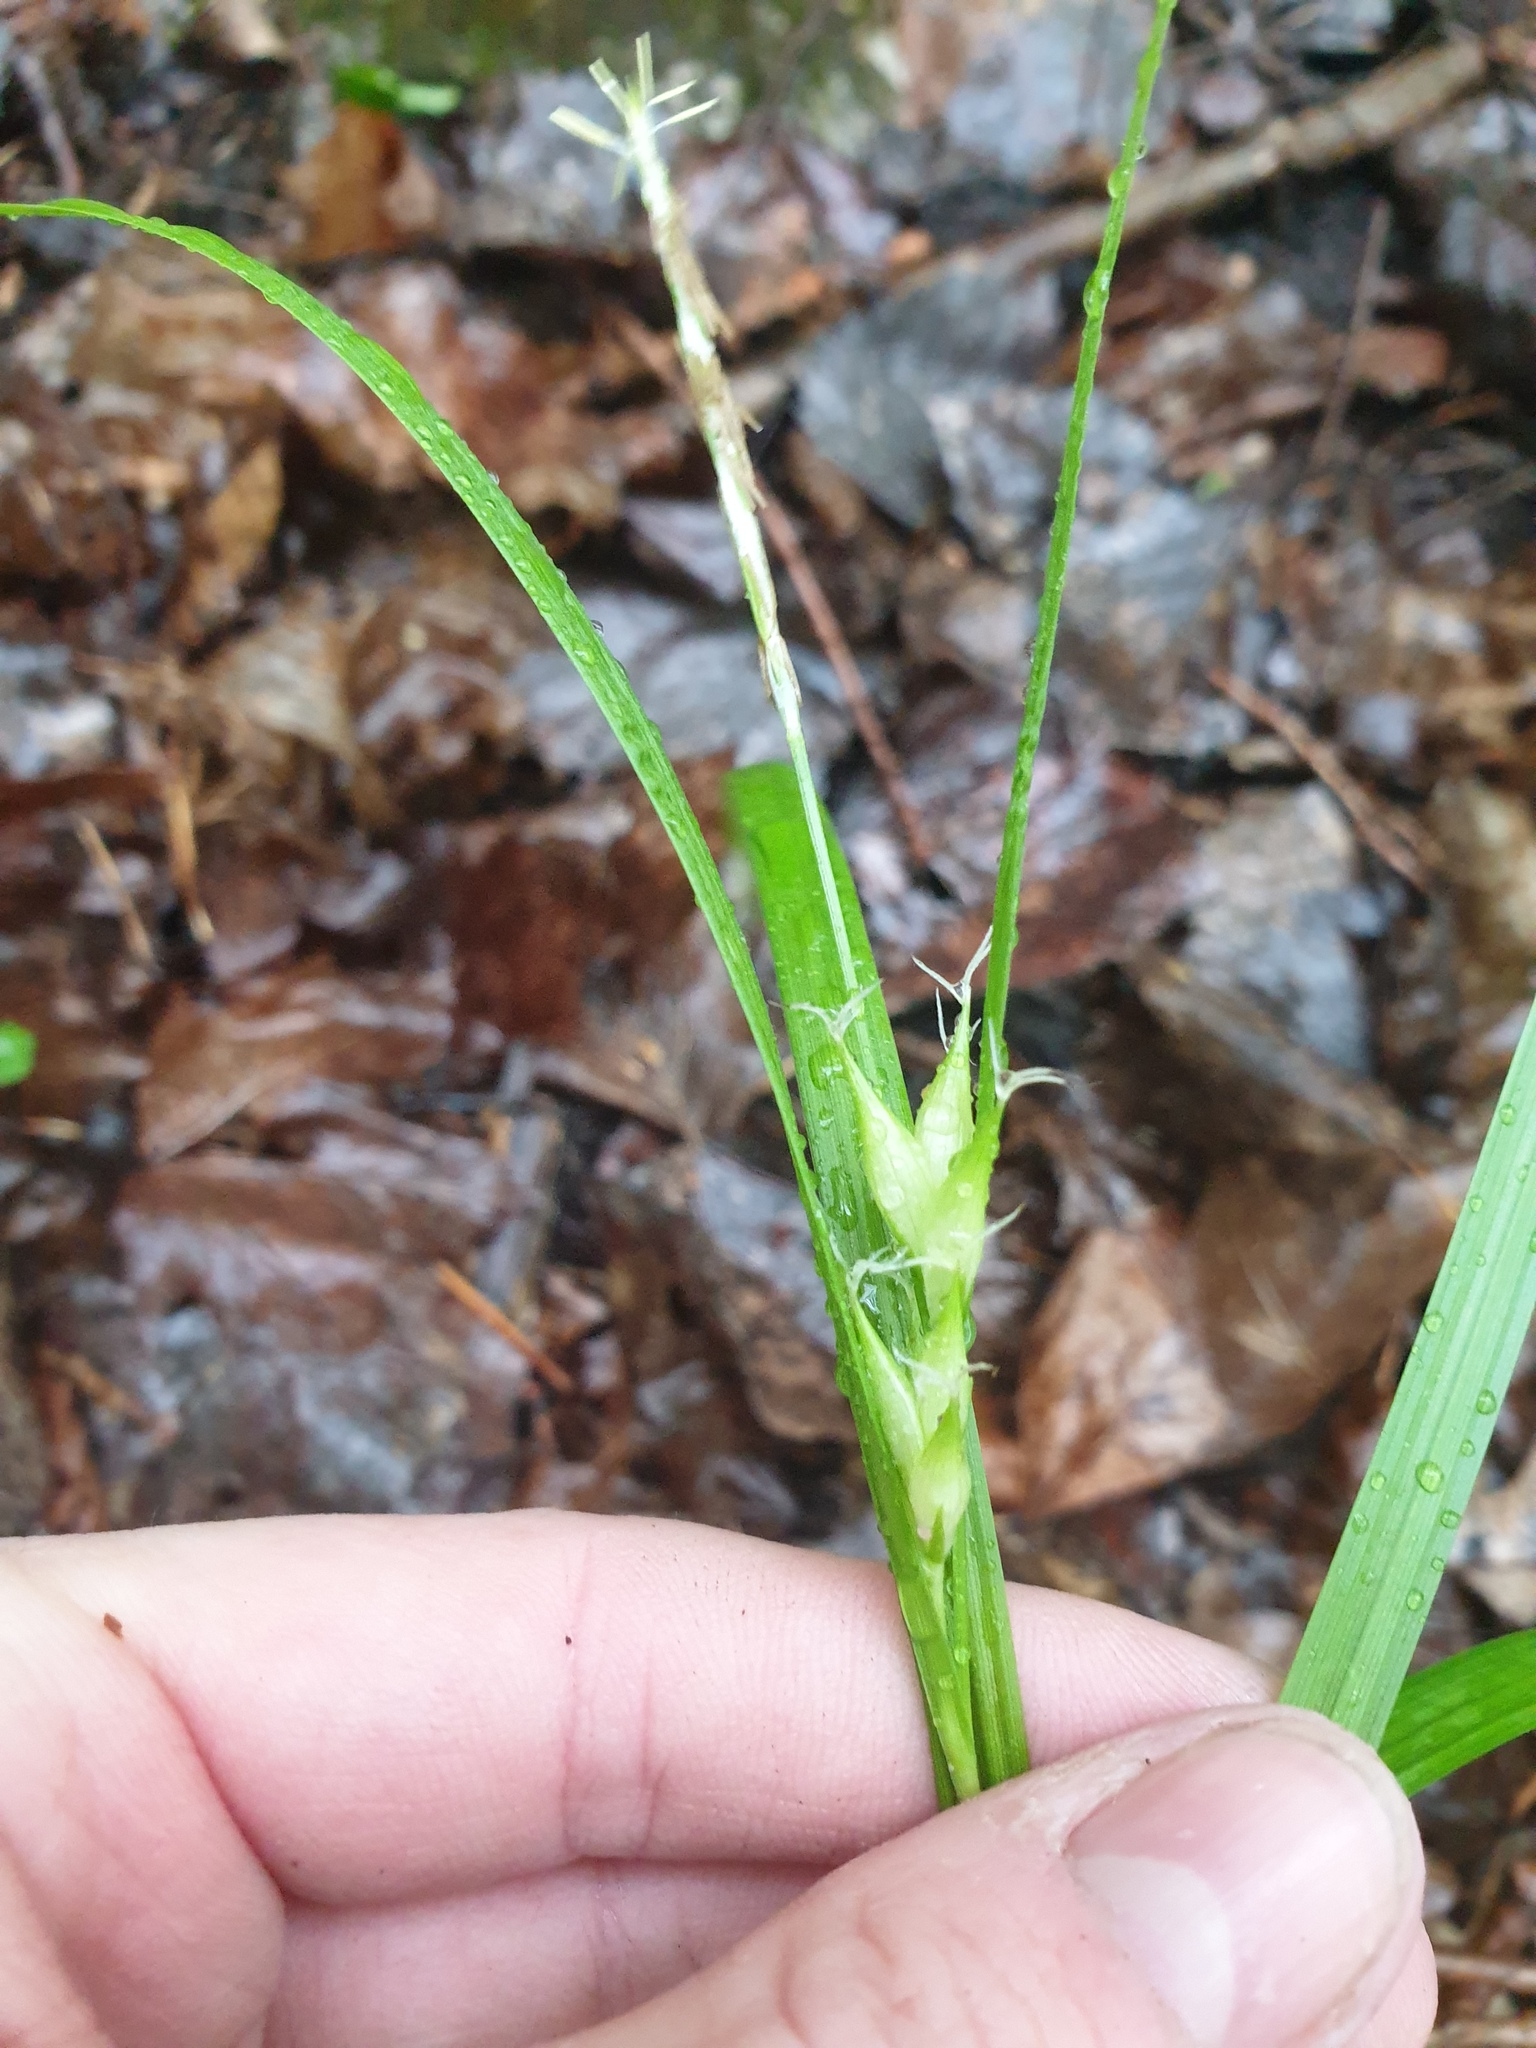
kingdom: Plantae
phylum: Tracheophyta
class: Liliopsida
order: Poales
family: Cyperaceae
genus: Carex
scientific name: Carex intumescens
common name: Greater bladder sedge
